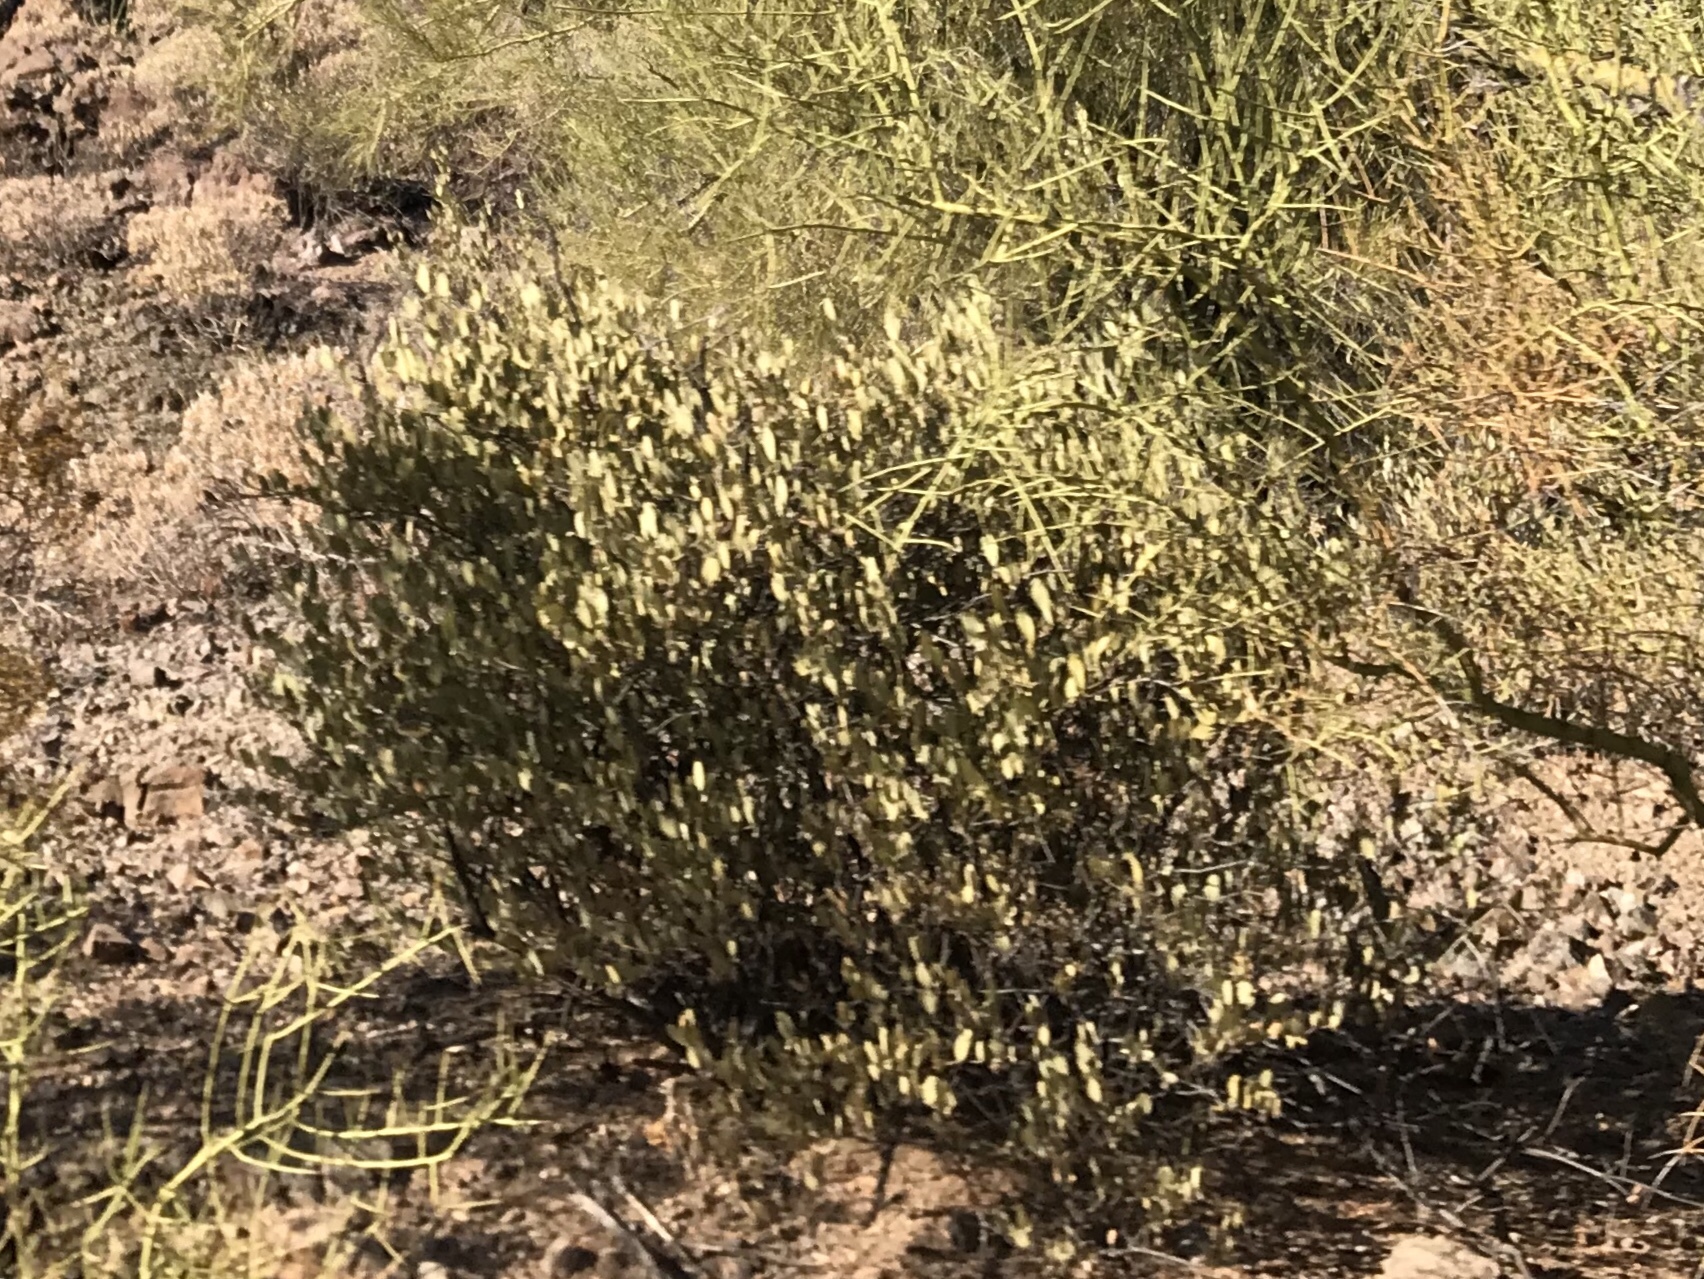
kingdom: Plantae
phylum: Tracheophyta
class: Magnoliopsida
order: Caryophyllales
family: Simmondsiaceae
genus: Simmondsia
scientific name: Simmondsia chinensis
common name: Jojoba
